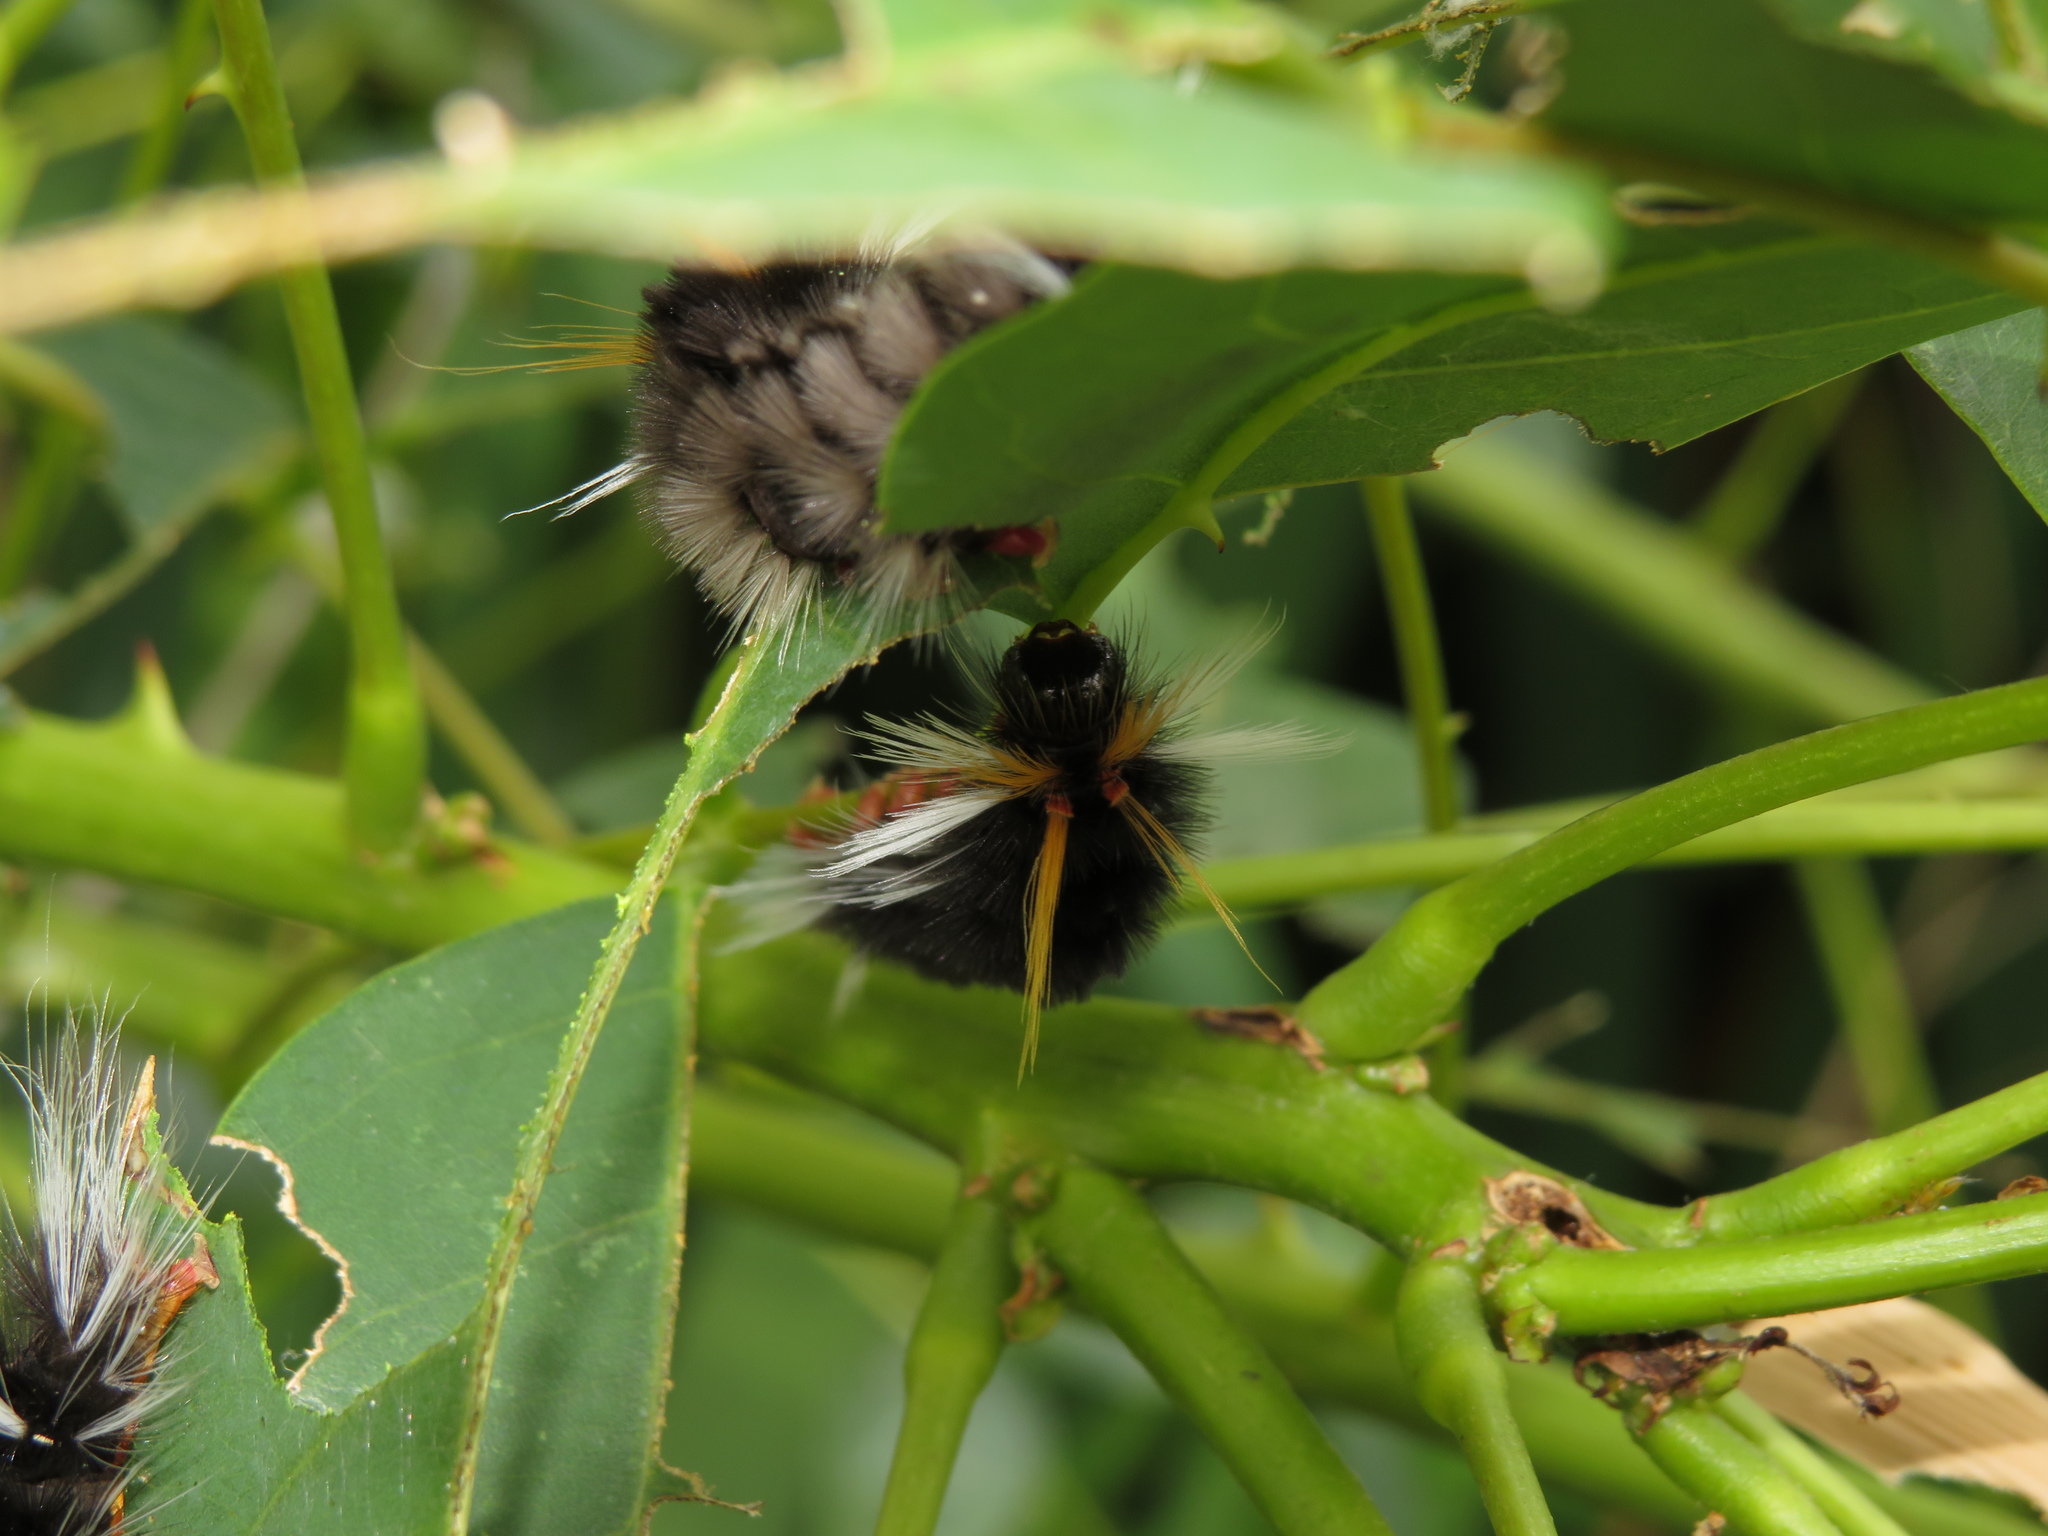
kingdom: Animalia
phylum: Arthropoda
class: Insecta
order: Lepidoptera
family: Erebidae
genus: Halysidota
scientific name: Halysidota ruscheweyhi
